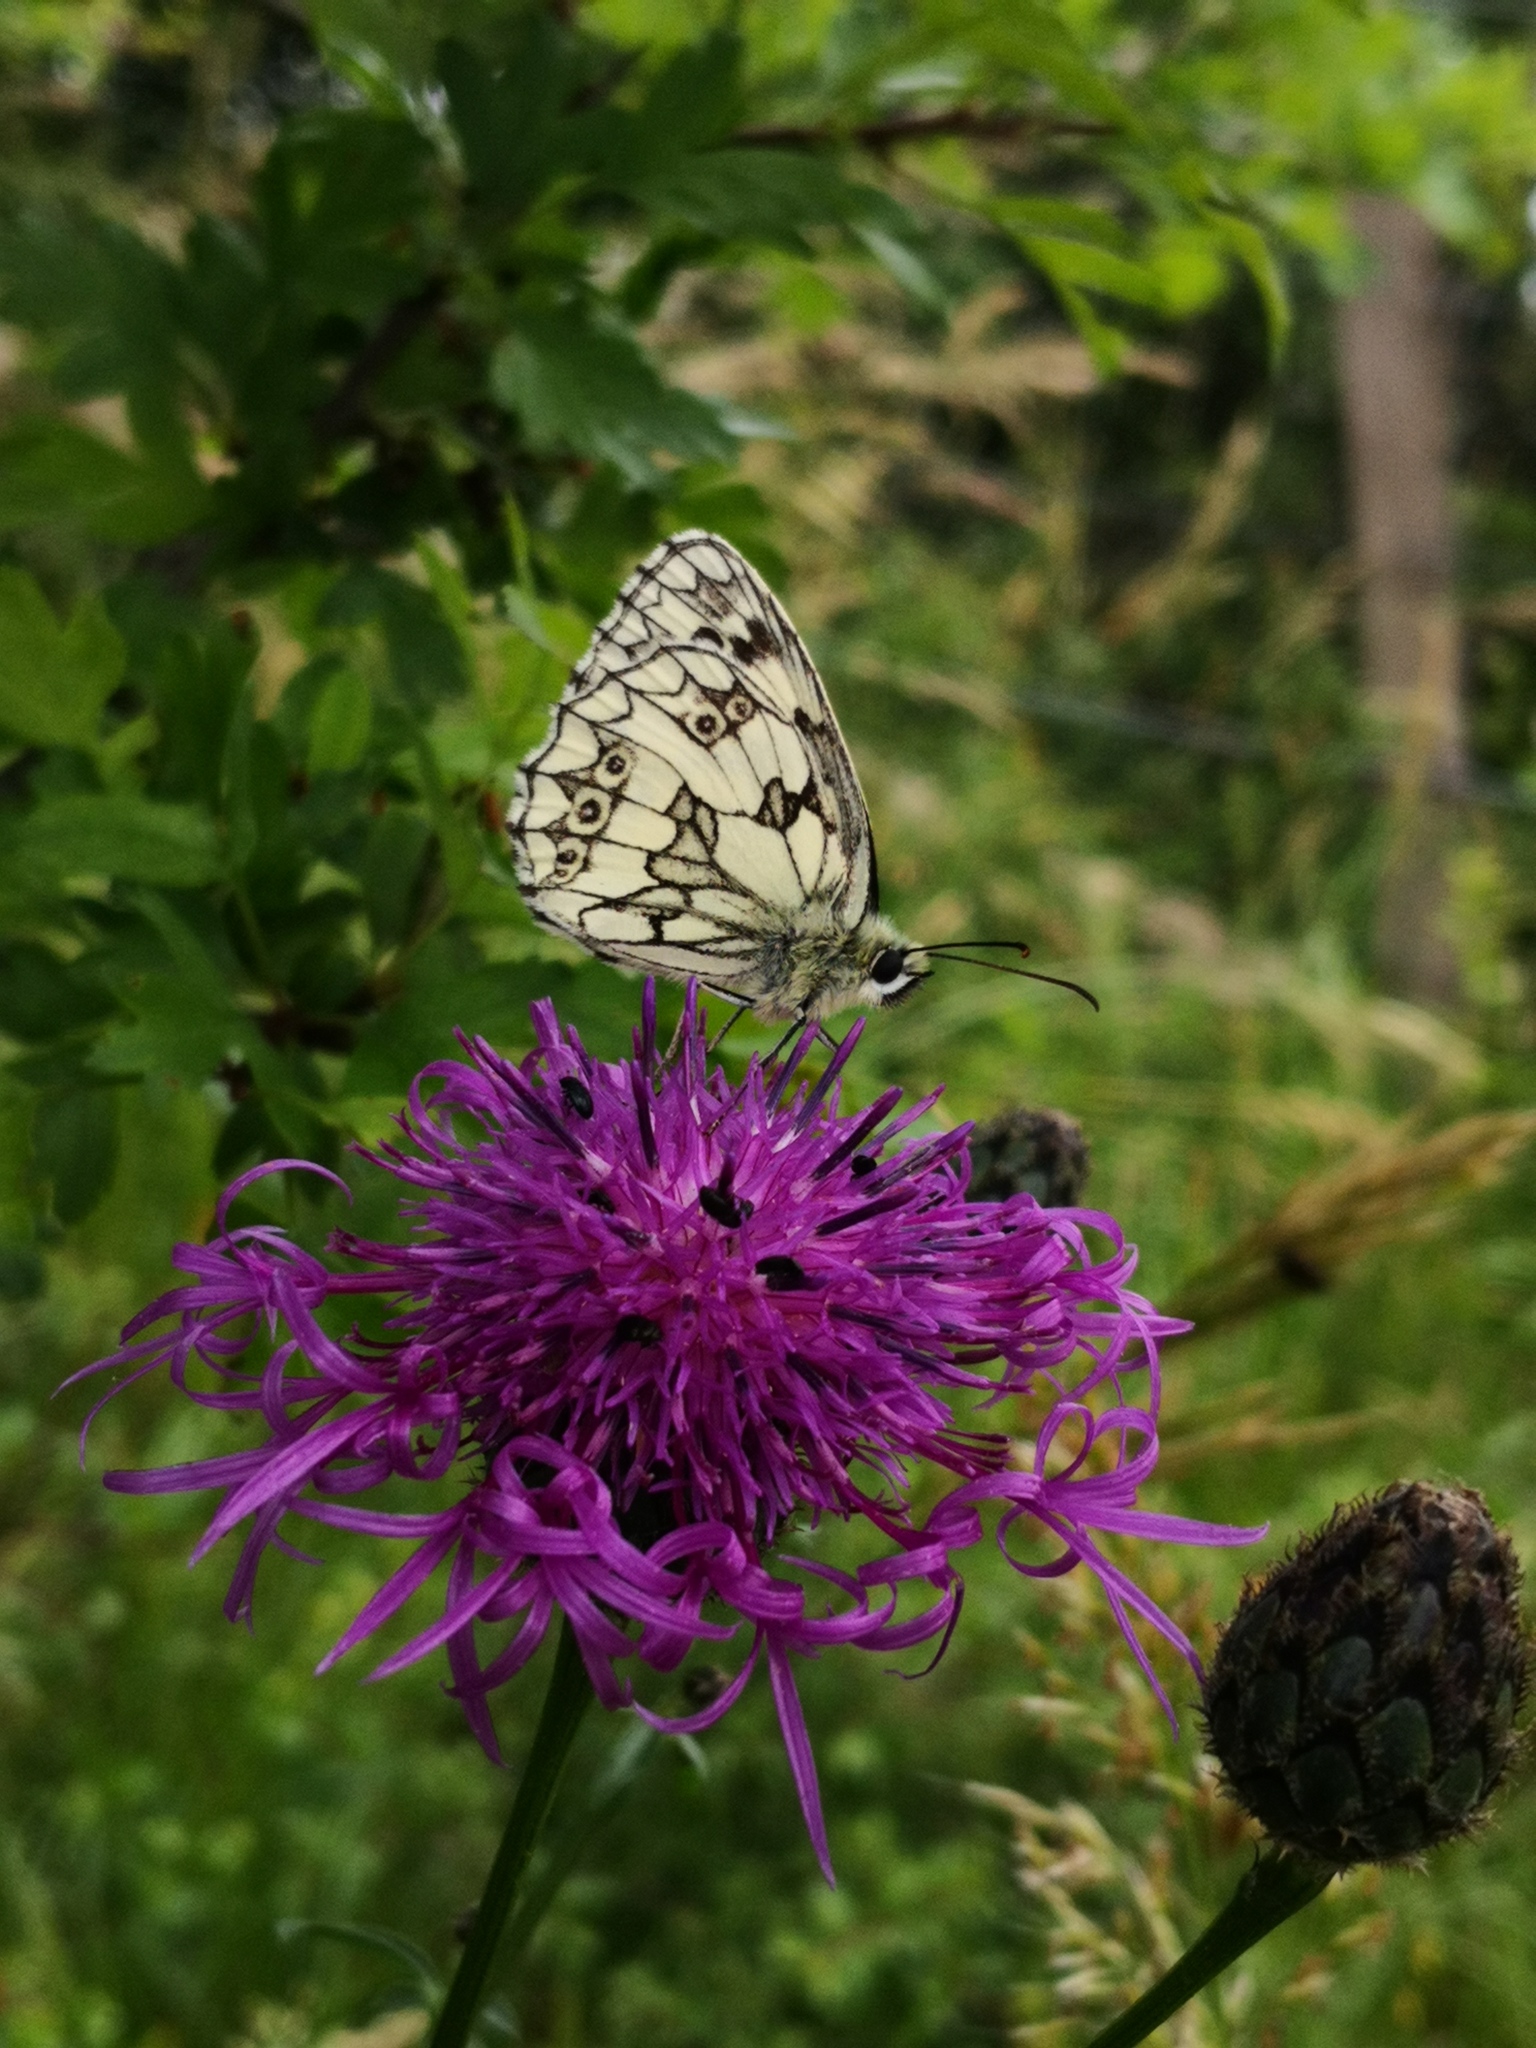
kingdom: Animalia
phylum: Arthropoda
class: Insecta
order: Lepidoptera
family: Nymphalidae
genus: Melanargia
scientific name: Melanargia galathea
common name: Marbled white
